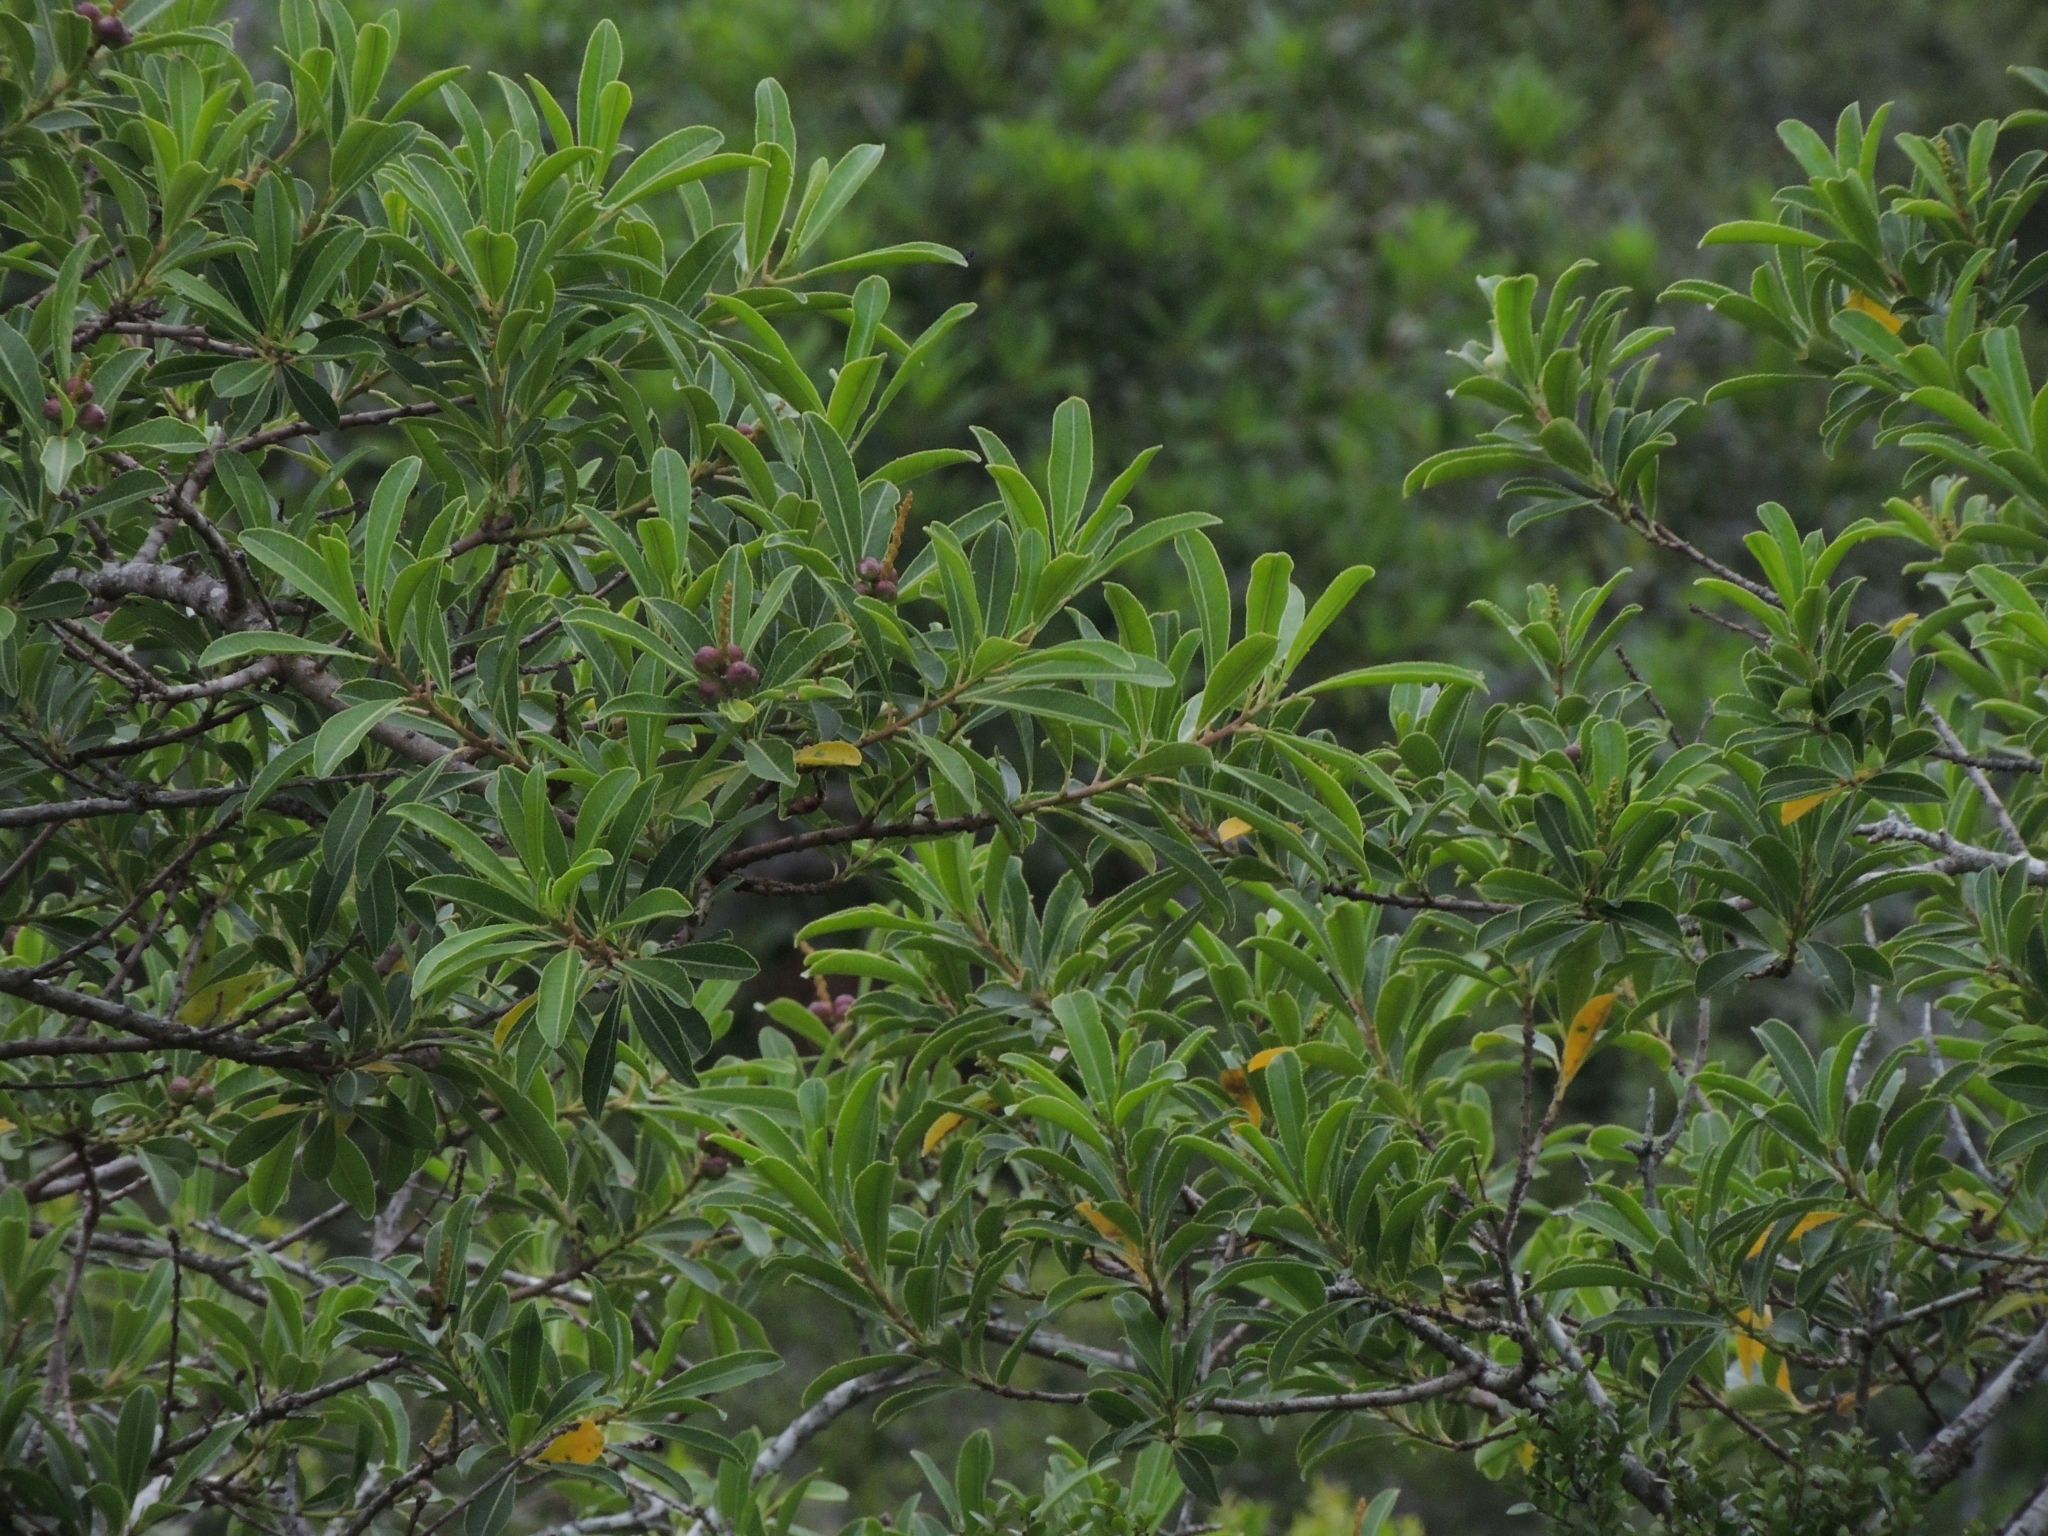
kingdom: Plantae
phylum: Tracheophyta
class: Magnoliopsida
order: Malpighiales
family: Euphorbiaceae
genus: Sapium
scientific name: Sapium glandulosum
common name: Milktree
